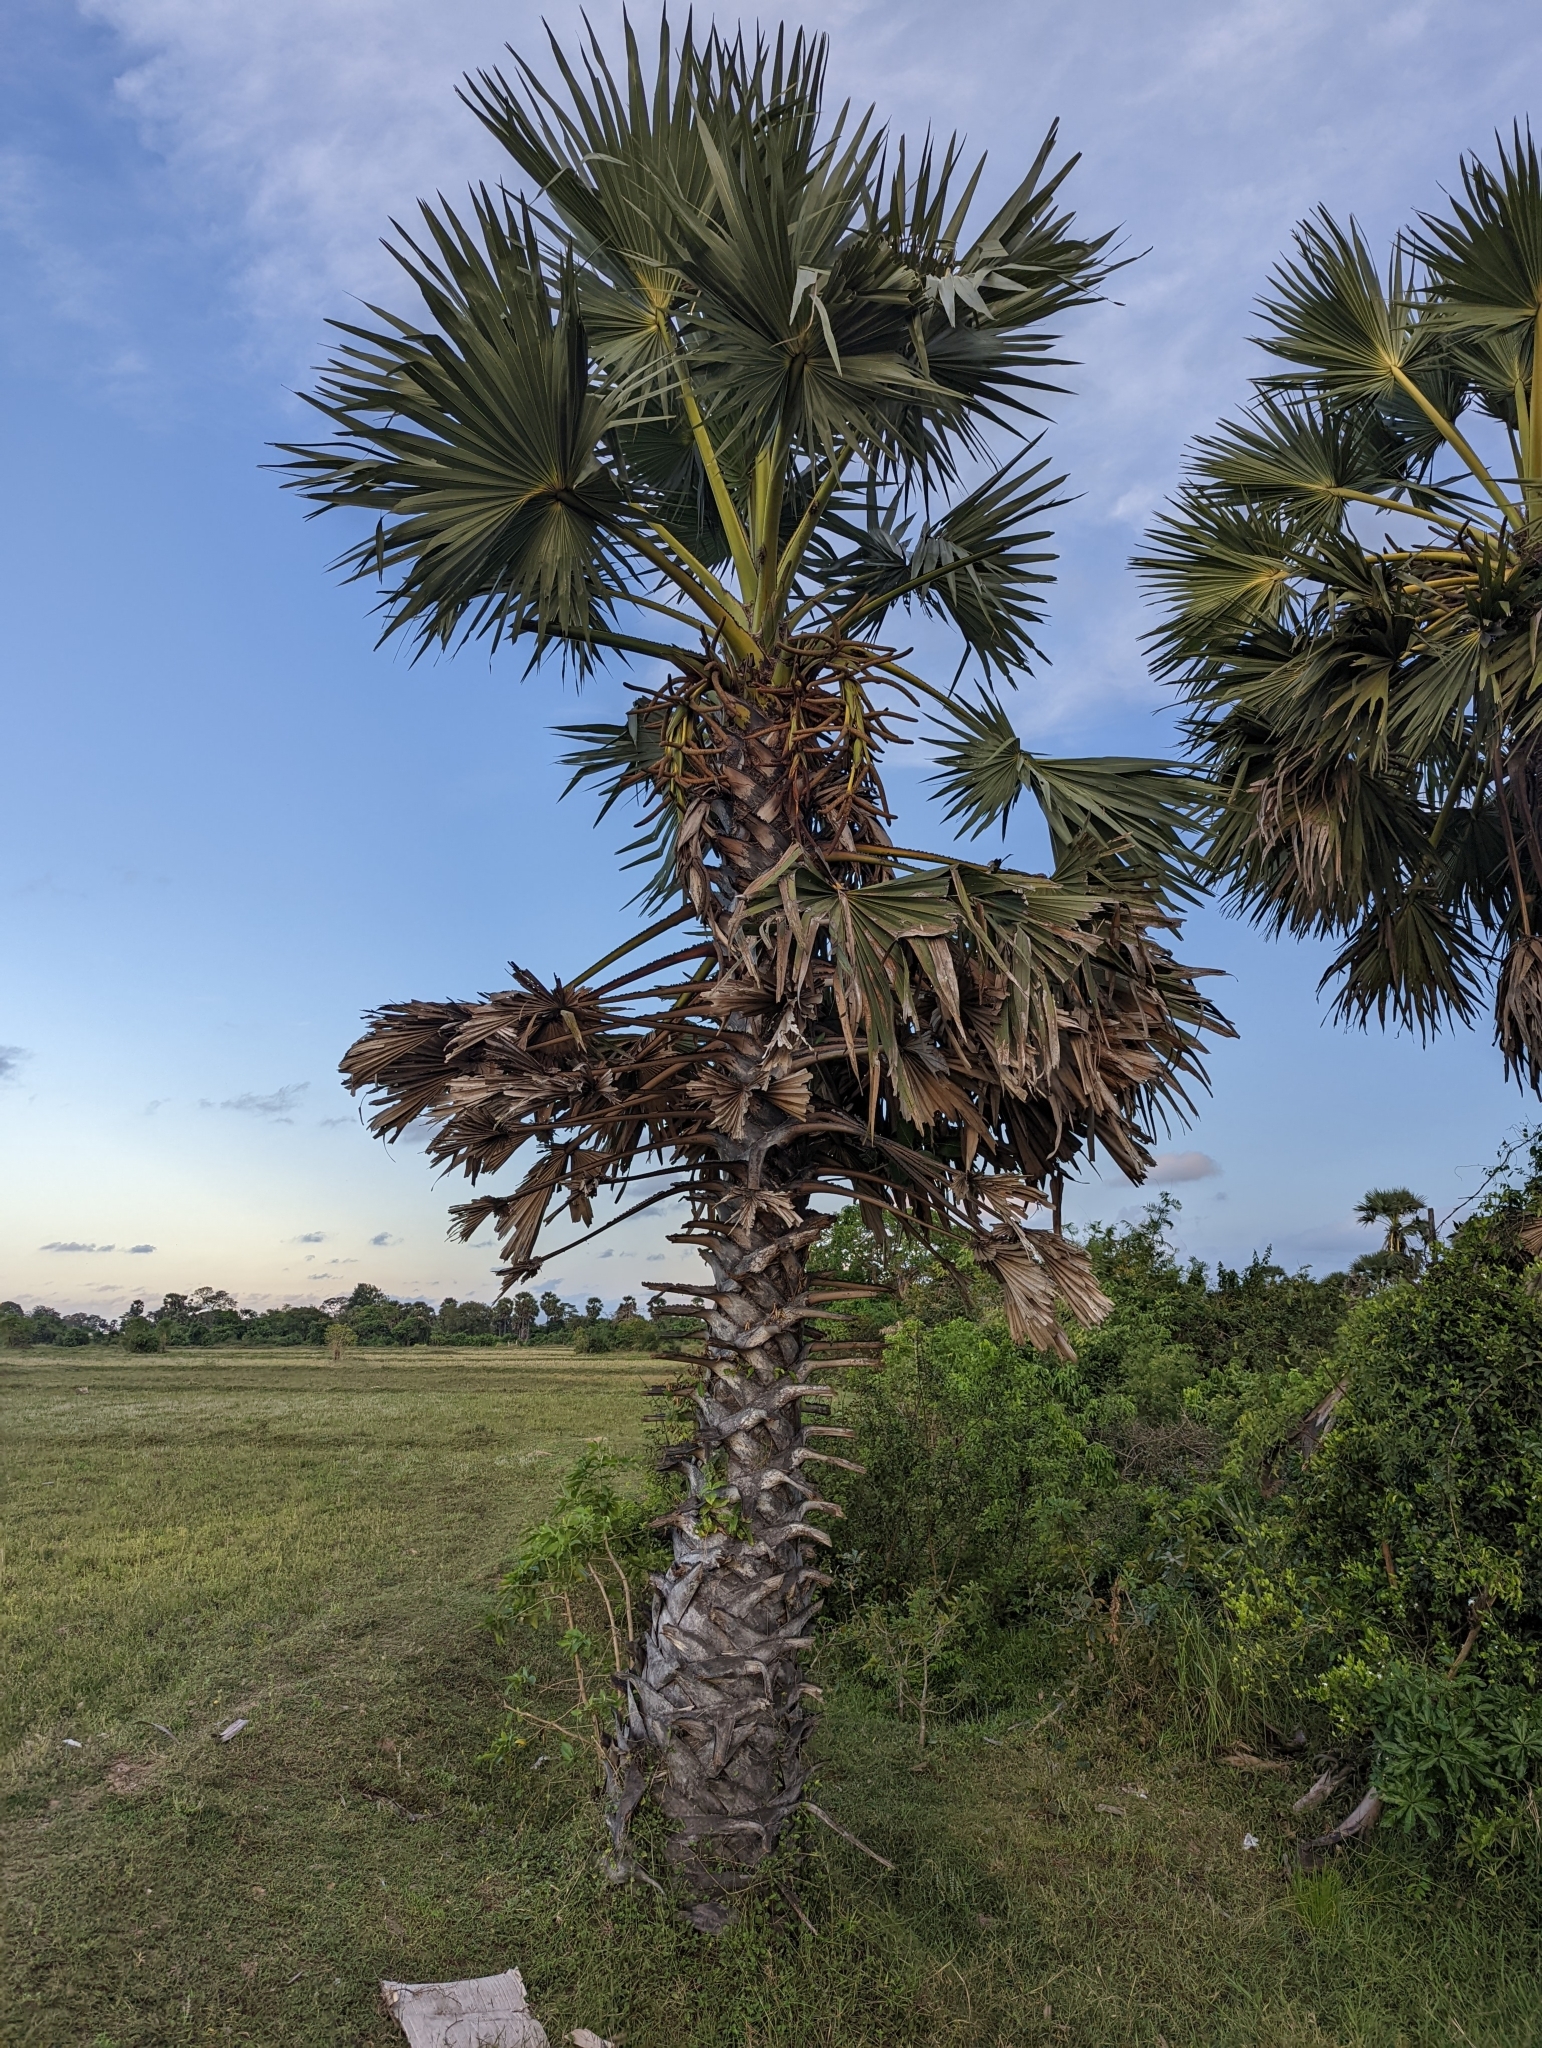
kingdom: Plantae
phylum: Tracheophyta
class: Liliopsida
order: Arecales
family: Arecaceae
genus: Borassus
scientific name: Borassus flabellifer
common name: Palmyra palm
